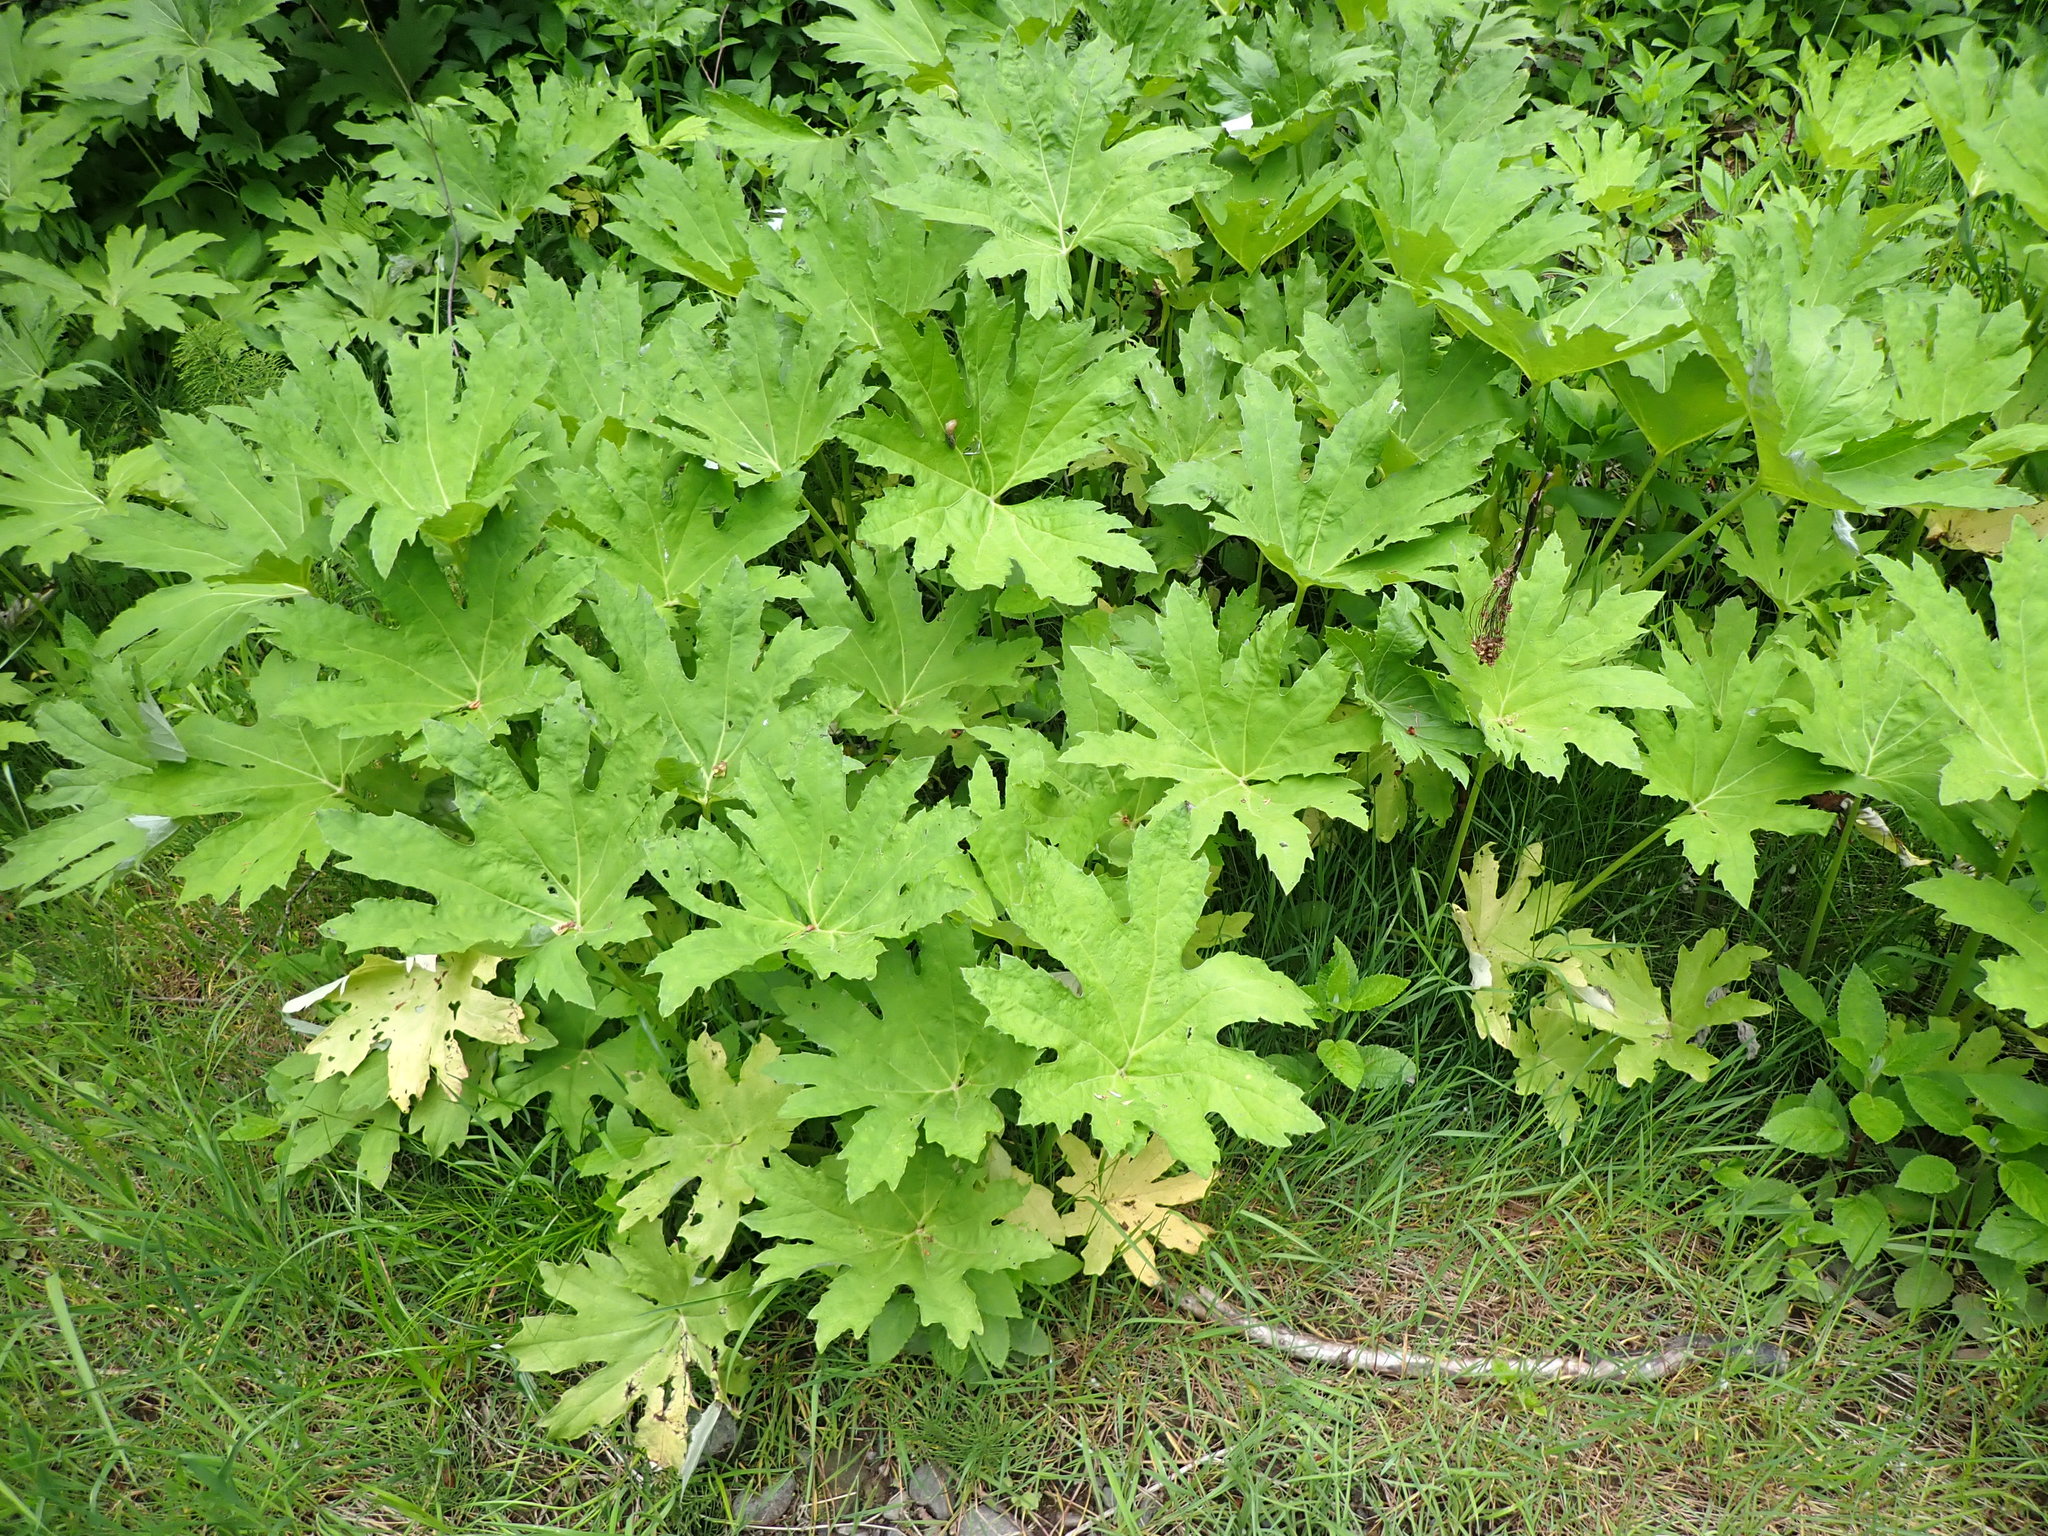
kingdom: Plantae
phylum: Tracheophyta
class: Magnoliopsida
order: Asterales
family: Asteraceae
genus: Petasites
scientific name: Petasites frigidus
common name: Arctic butterbur
